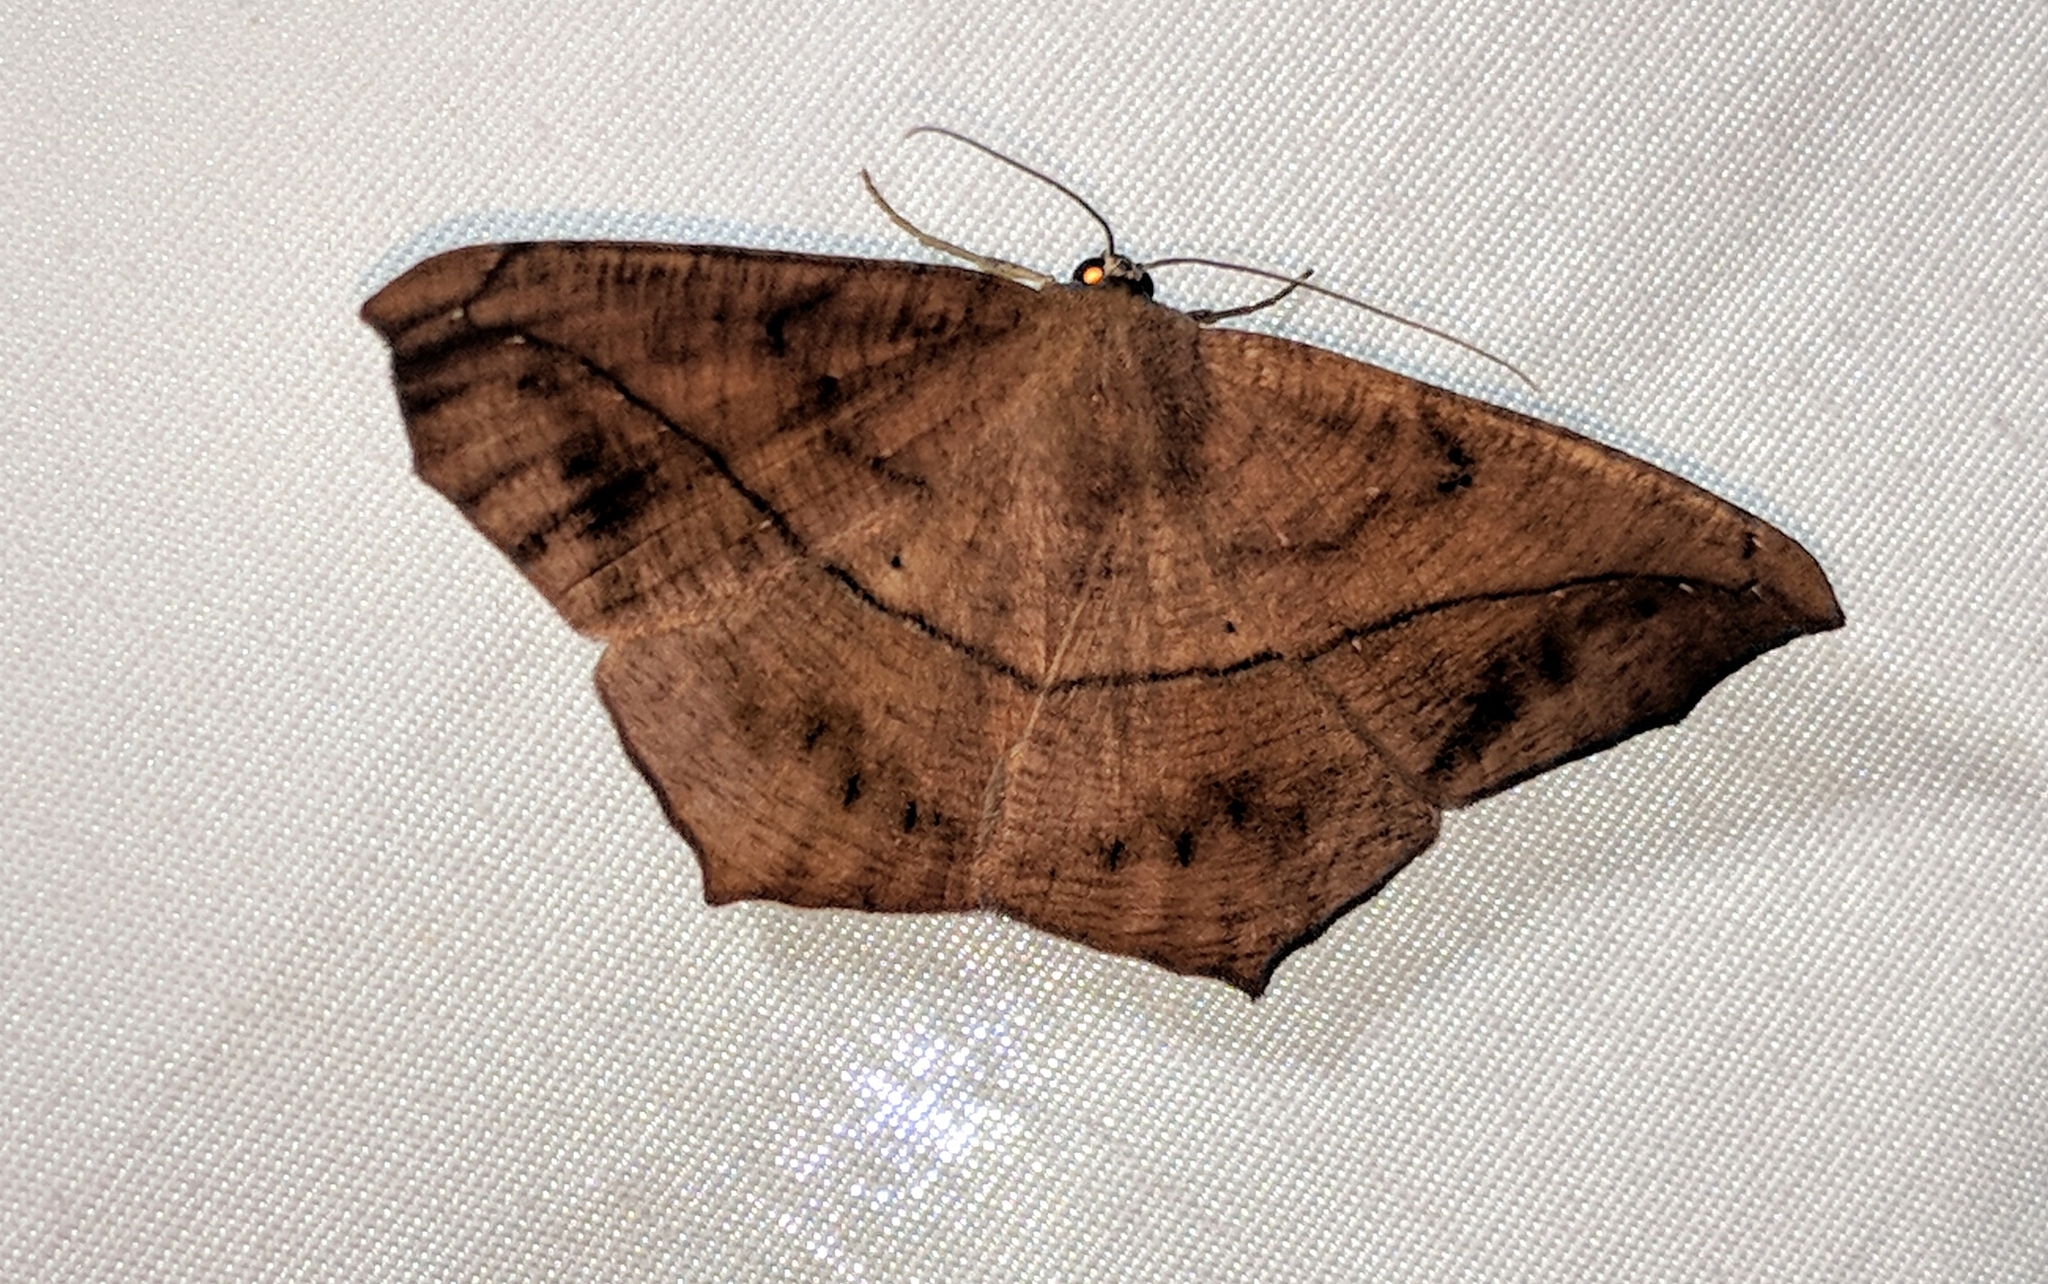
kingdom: Animalia
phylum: Arthropoda
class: Insecta
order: Lepidoptera
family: Geometridae
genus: Prochoerodes
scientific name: Prochoerodes lineola
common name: Large maple spanworm
